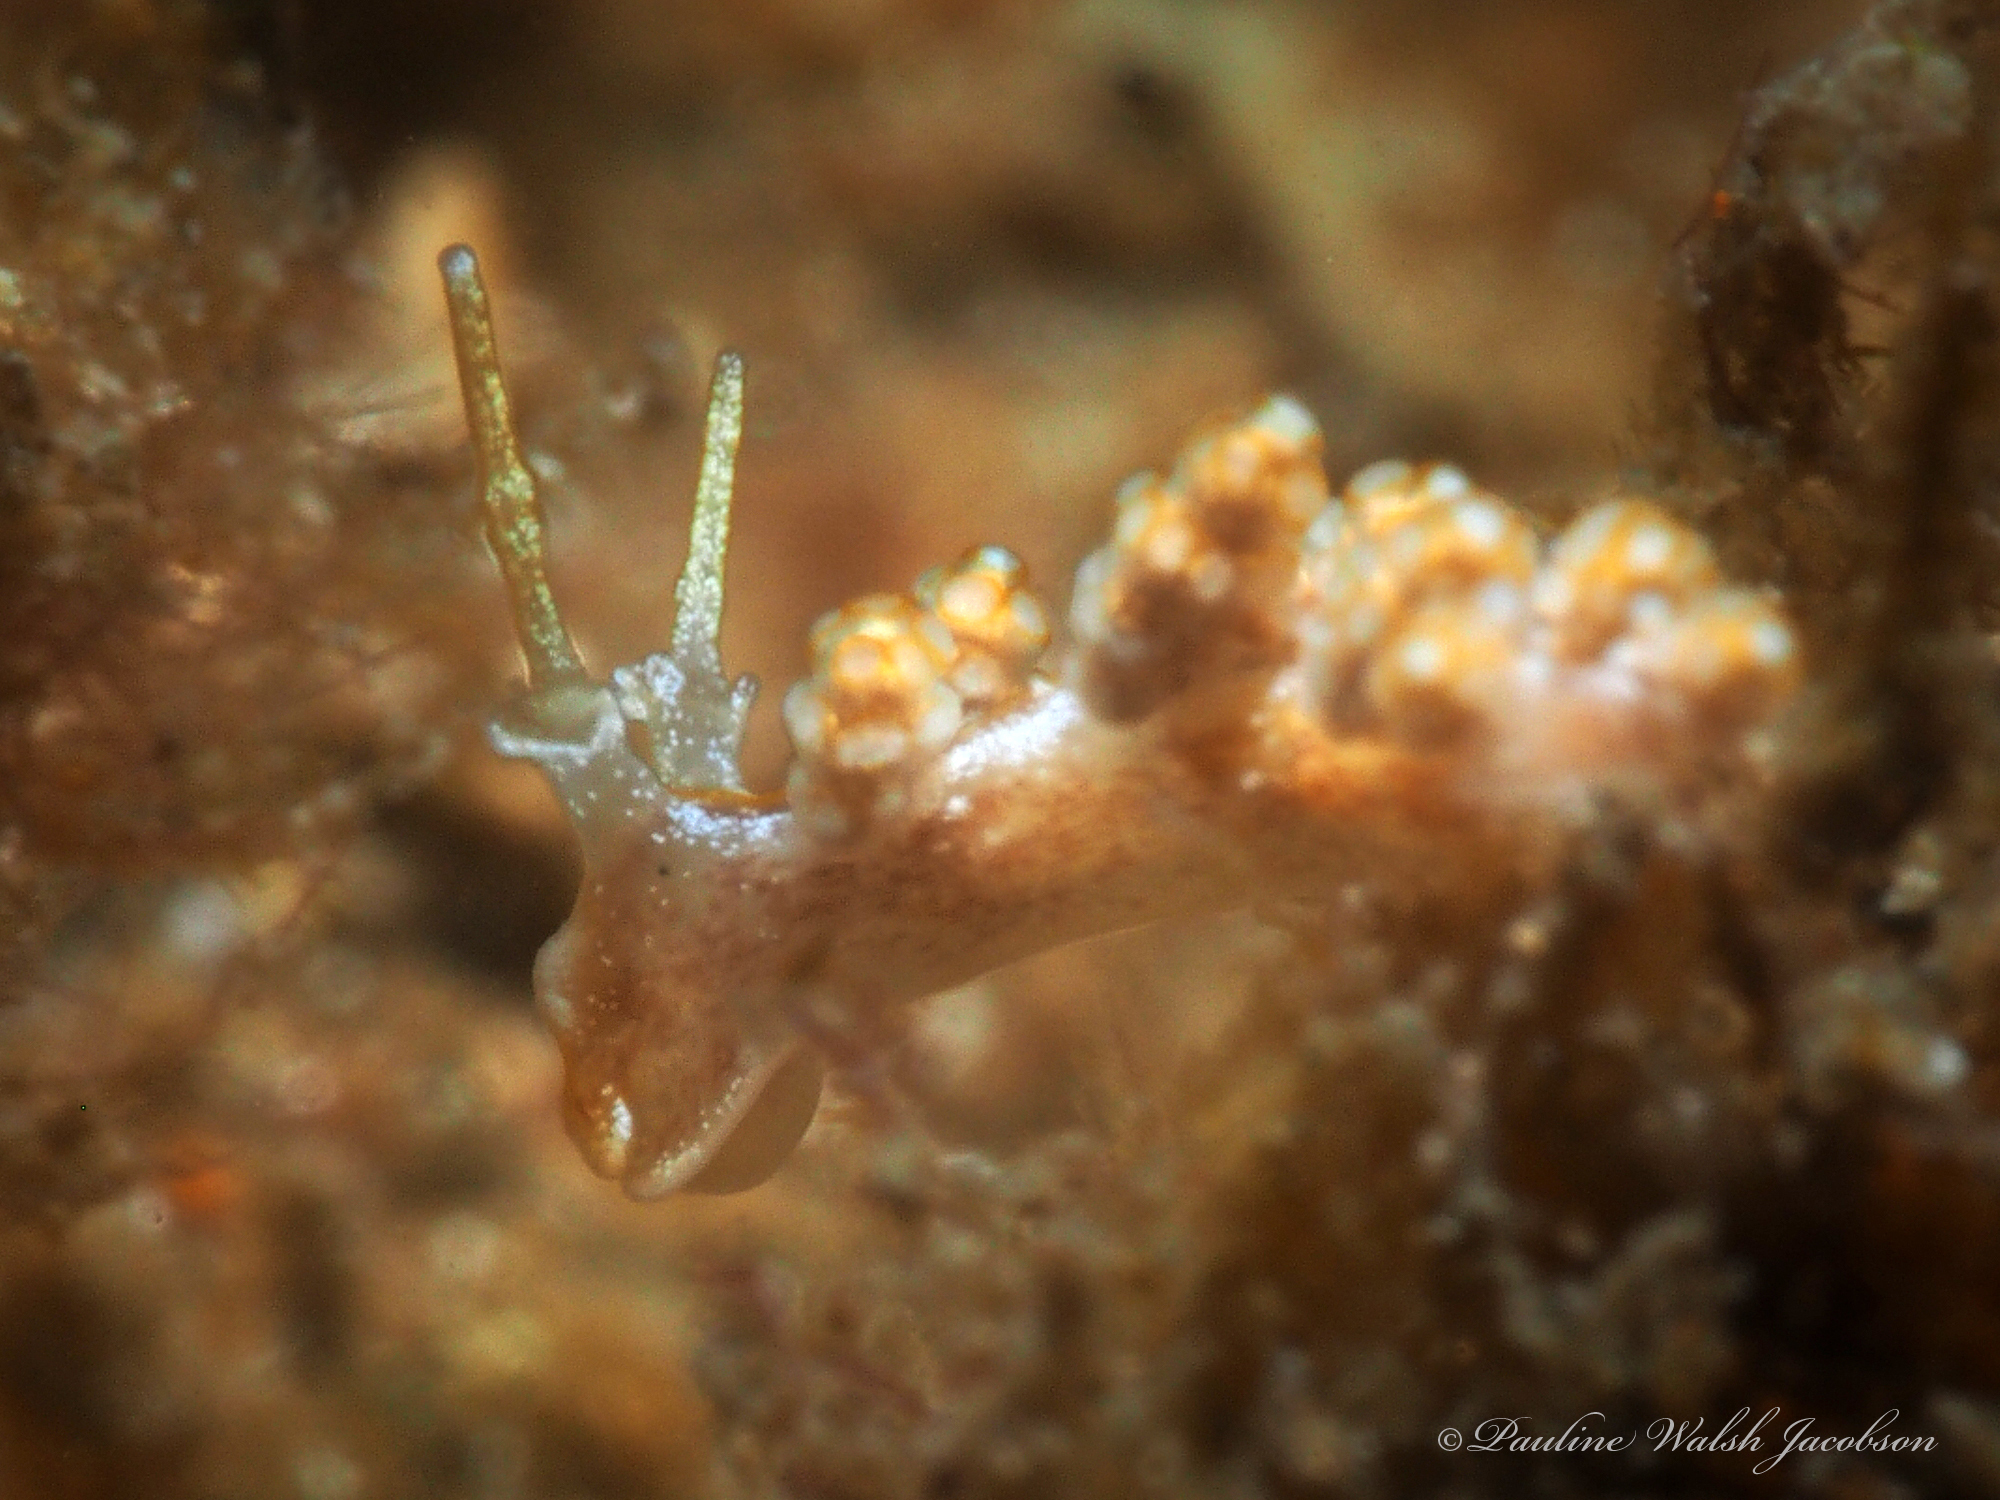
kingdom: Animalia
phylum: Mollusca
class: Gastropoda
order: Nudibranchia
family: Dotidae
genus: Doto
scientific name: Doto torrelavega
